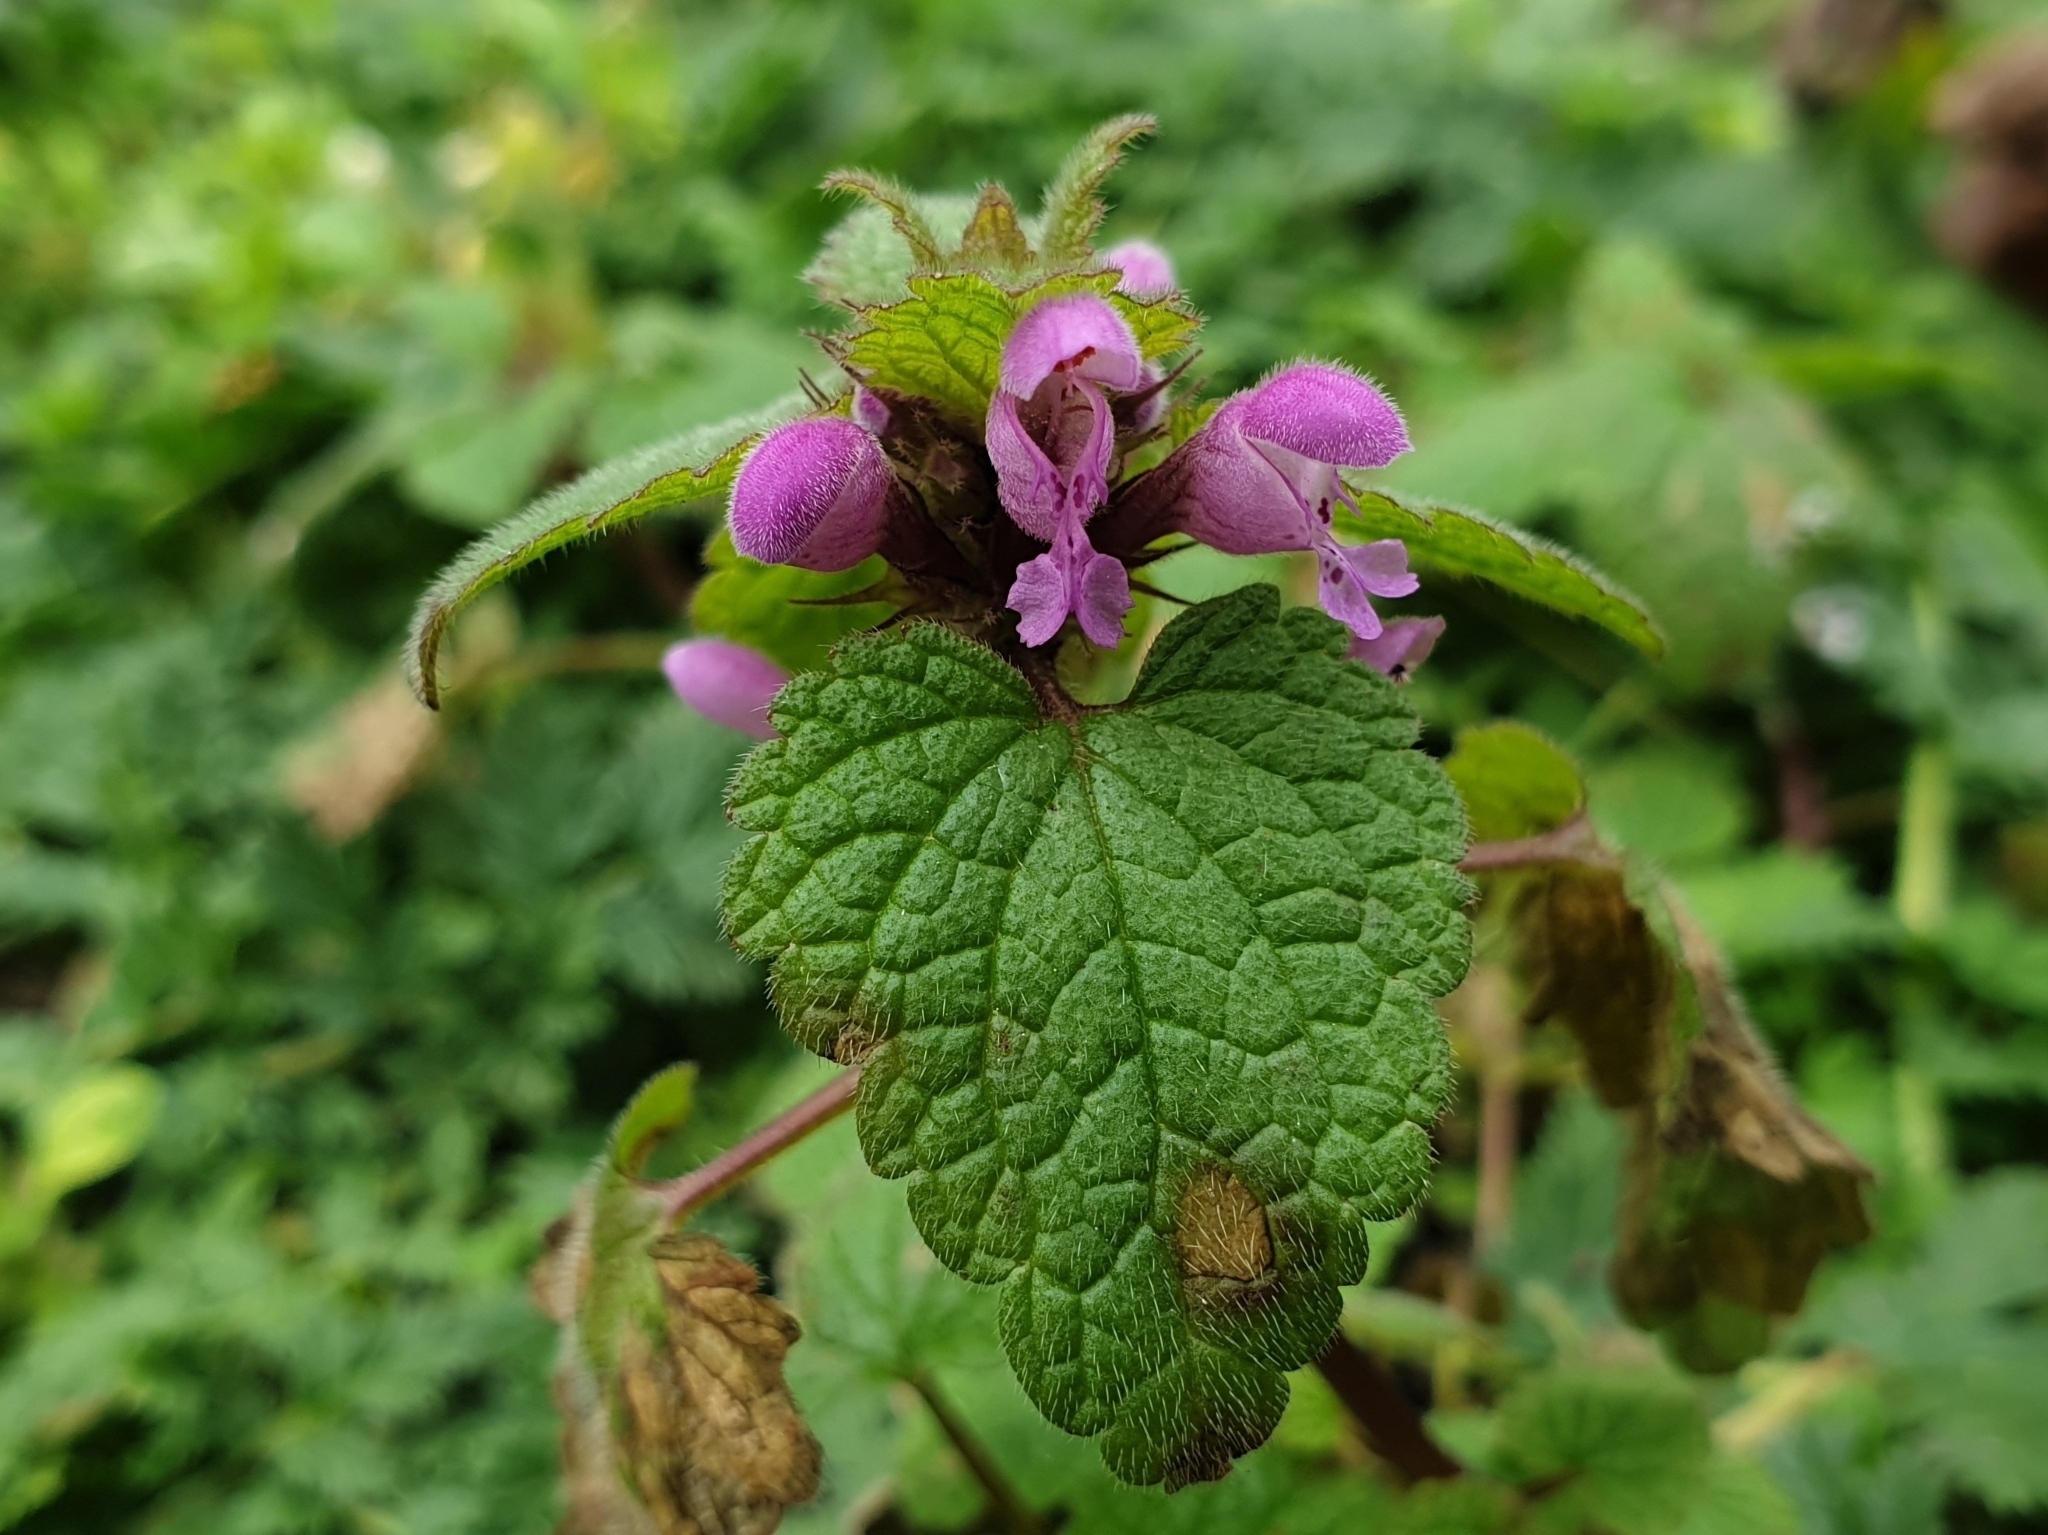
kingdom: Plantae
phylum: Tracheophyta
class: Magnoliopsida
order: Lamiales
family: Lamiaceae
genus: Lamium
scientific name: Lamium purpureum
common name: Red dead-nettle
